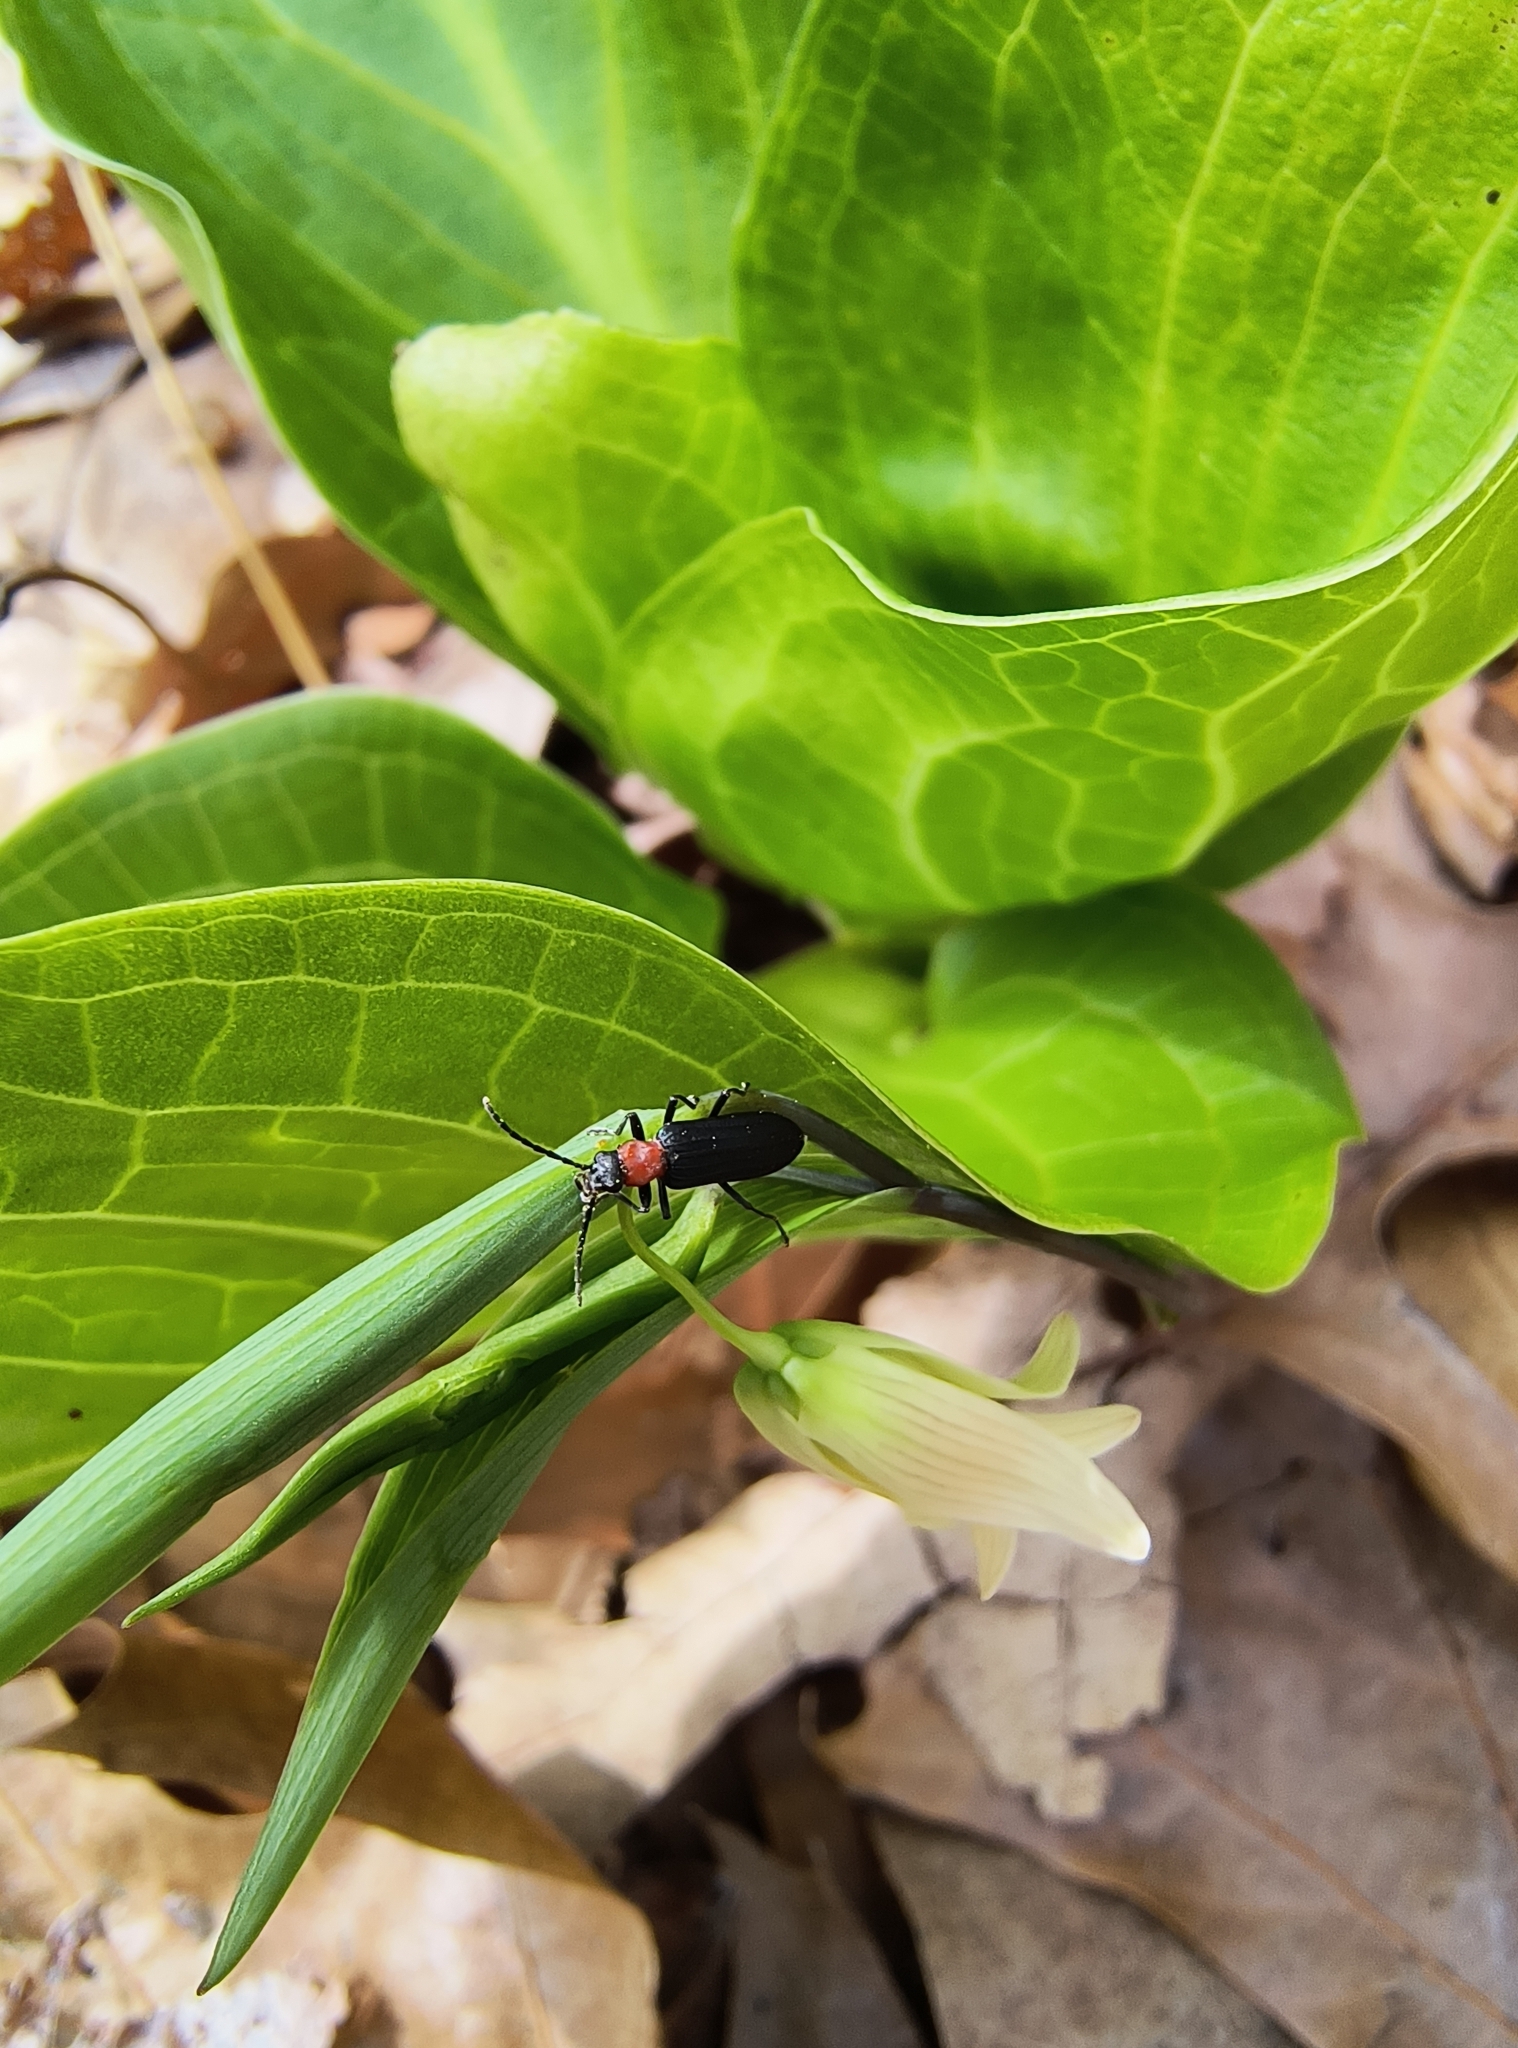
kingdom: Animalia
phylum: Arthropoda
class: Insecta
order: Coleoptera
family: Oedemeridae
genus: Ischnomera
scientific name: Ischnomera
